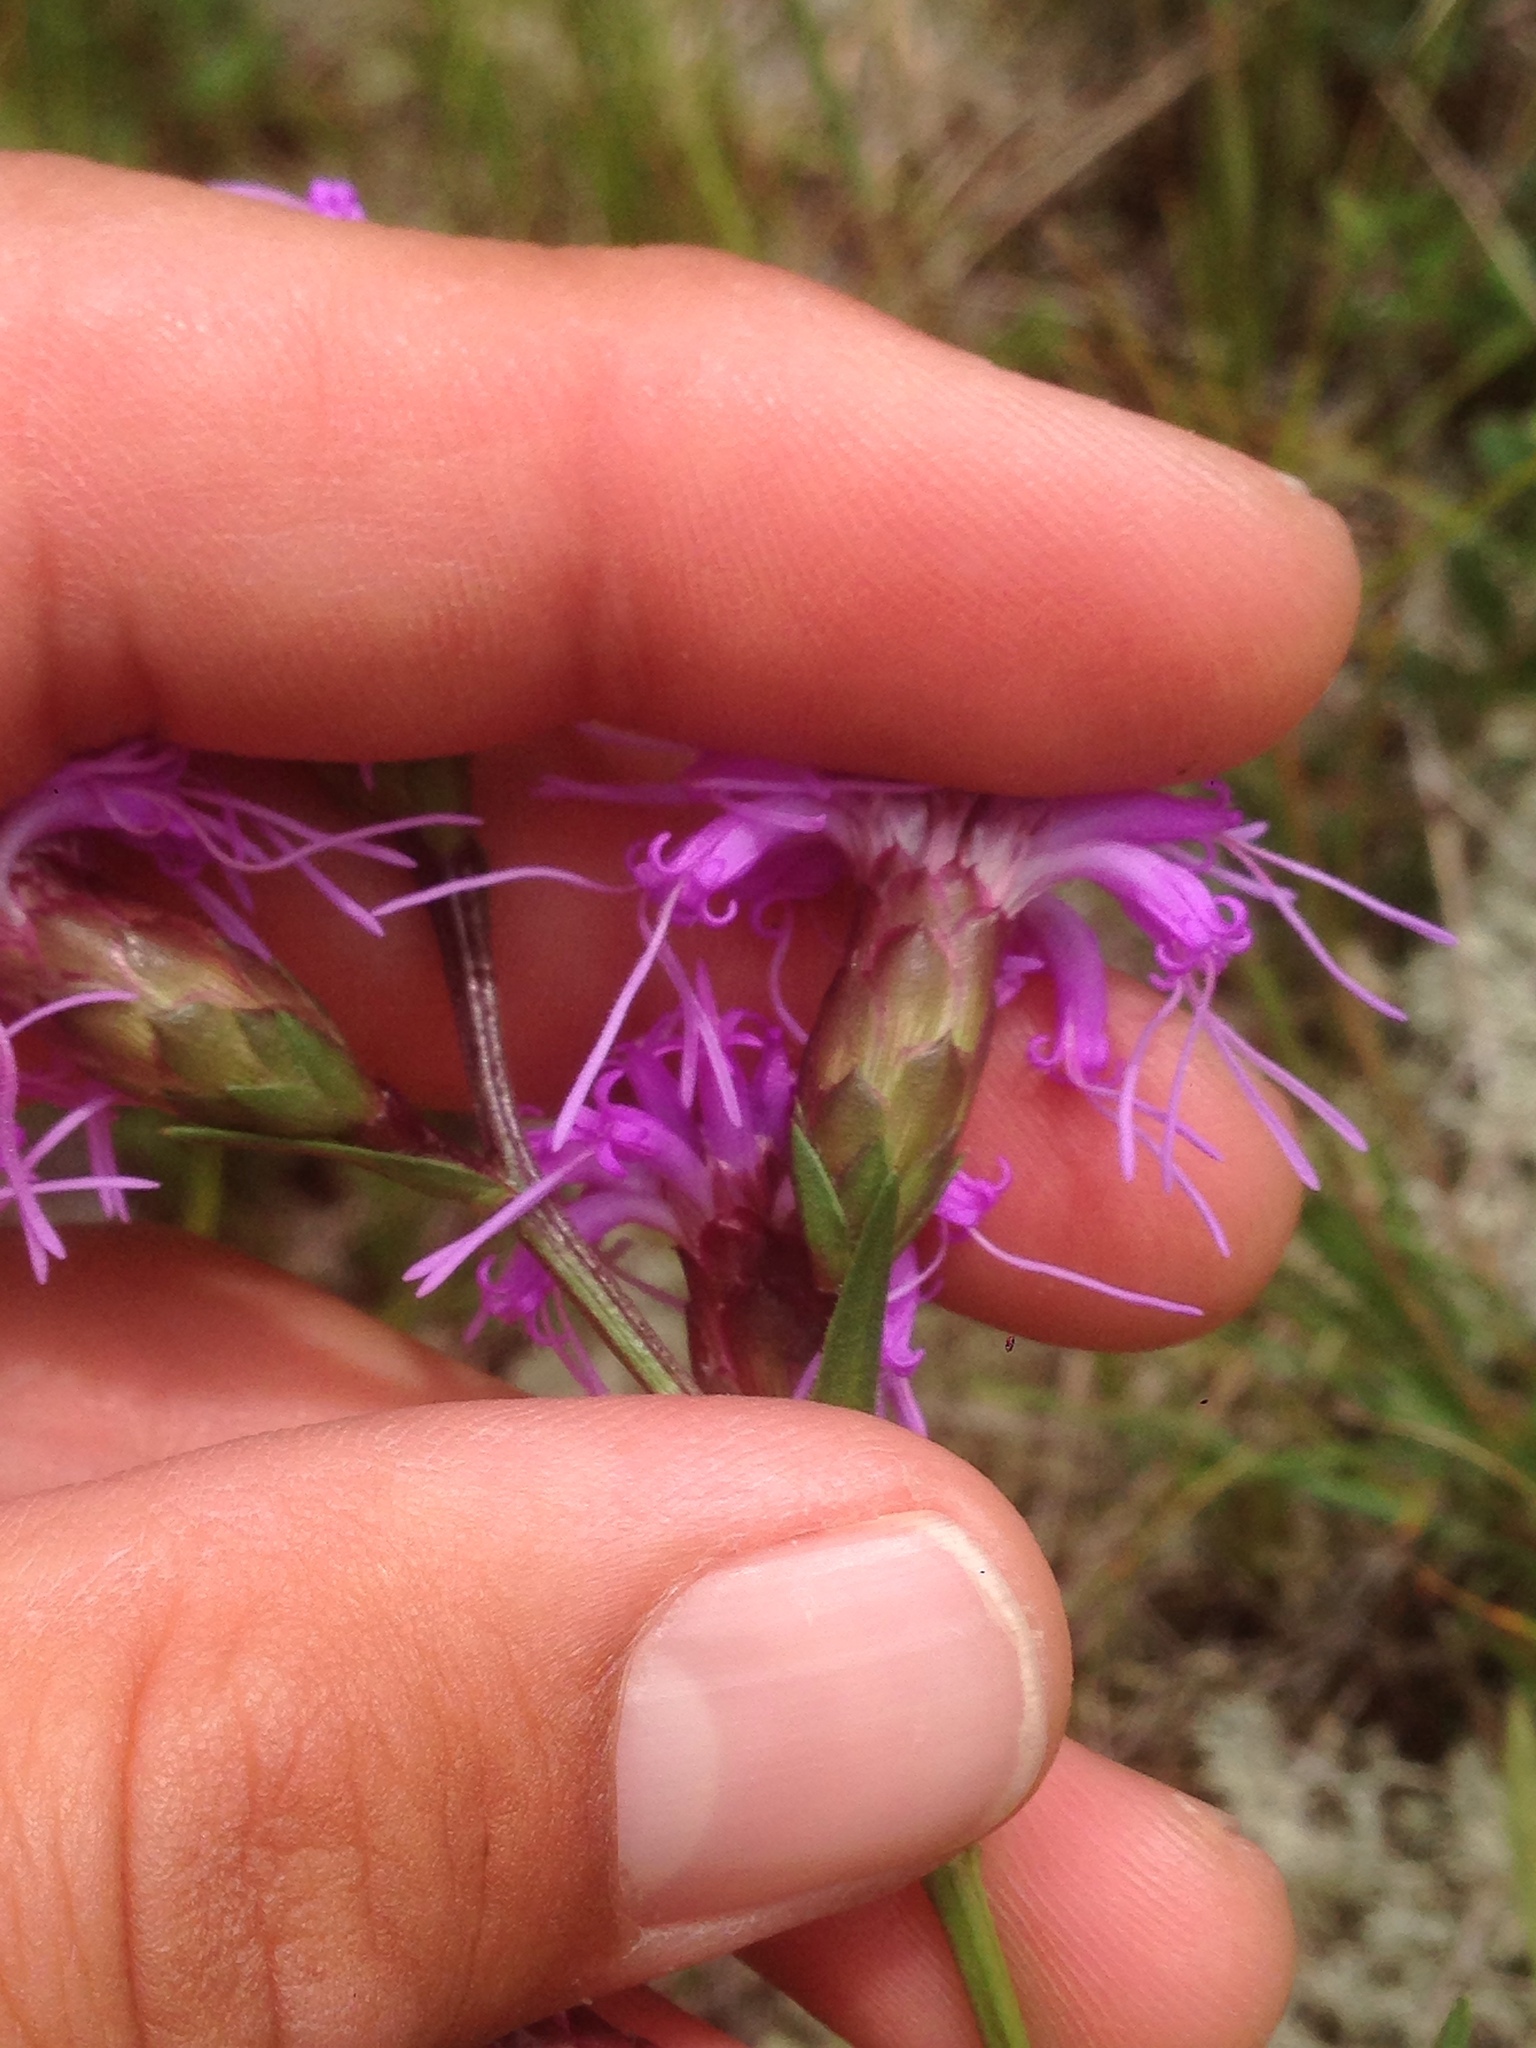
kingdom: Plantae
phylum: Tracheophyta
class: Magnoliopsida
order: Asterales
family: Asteraceae
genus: Liatris
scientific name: Liatris cylindracea
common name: Few-head blazingstar
